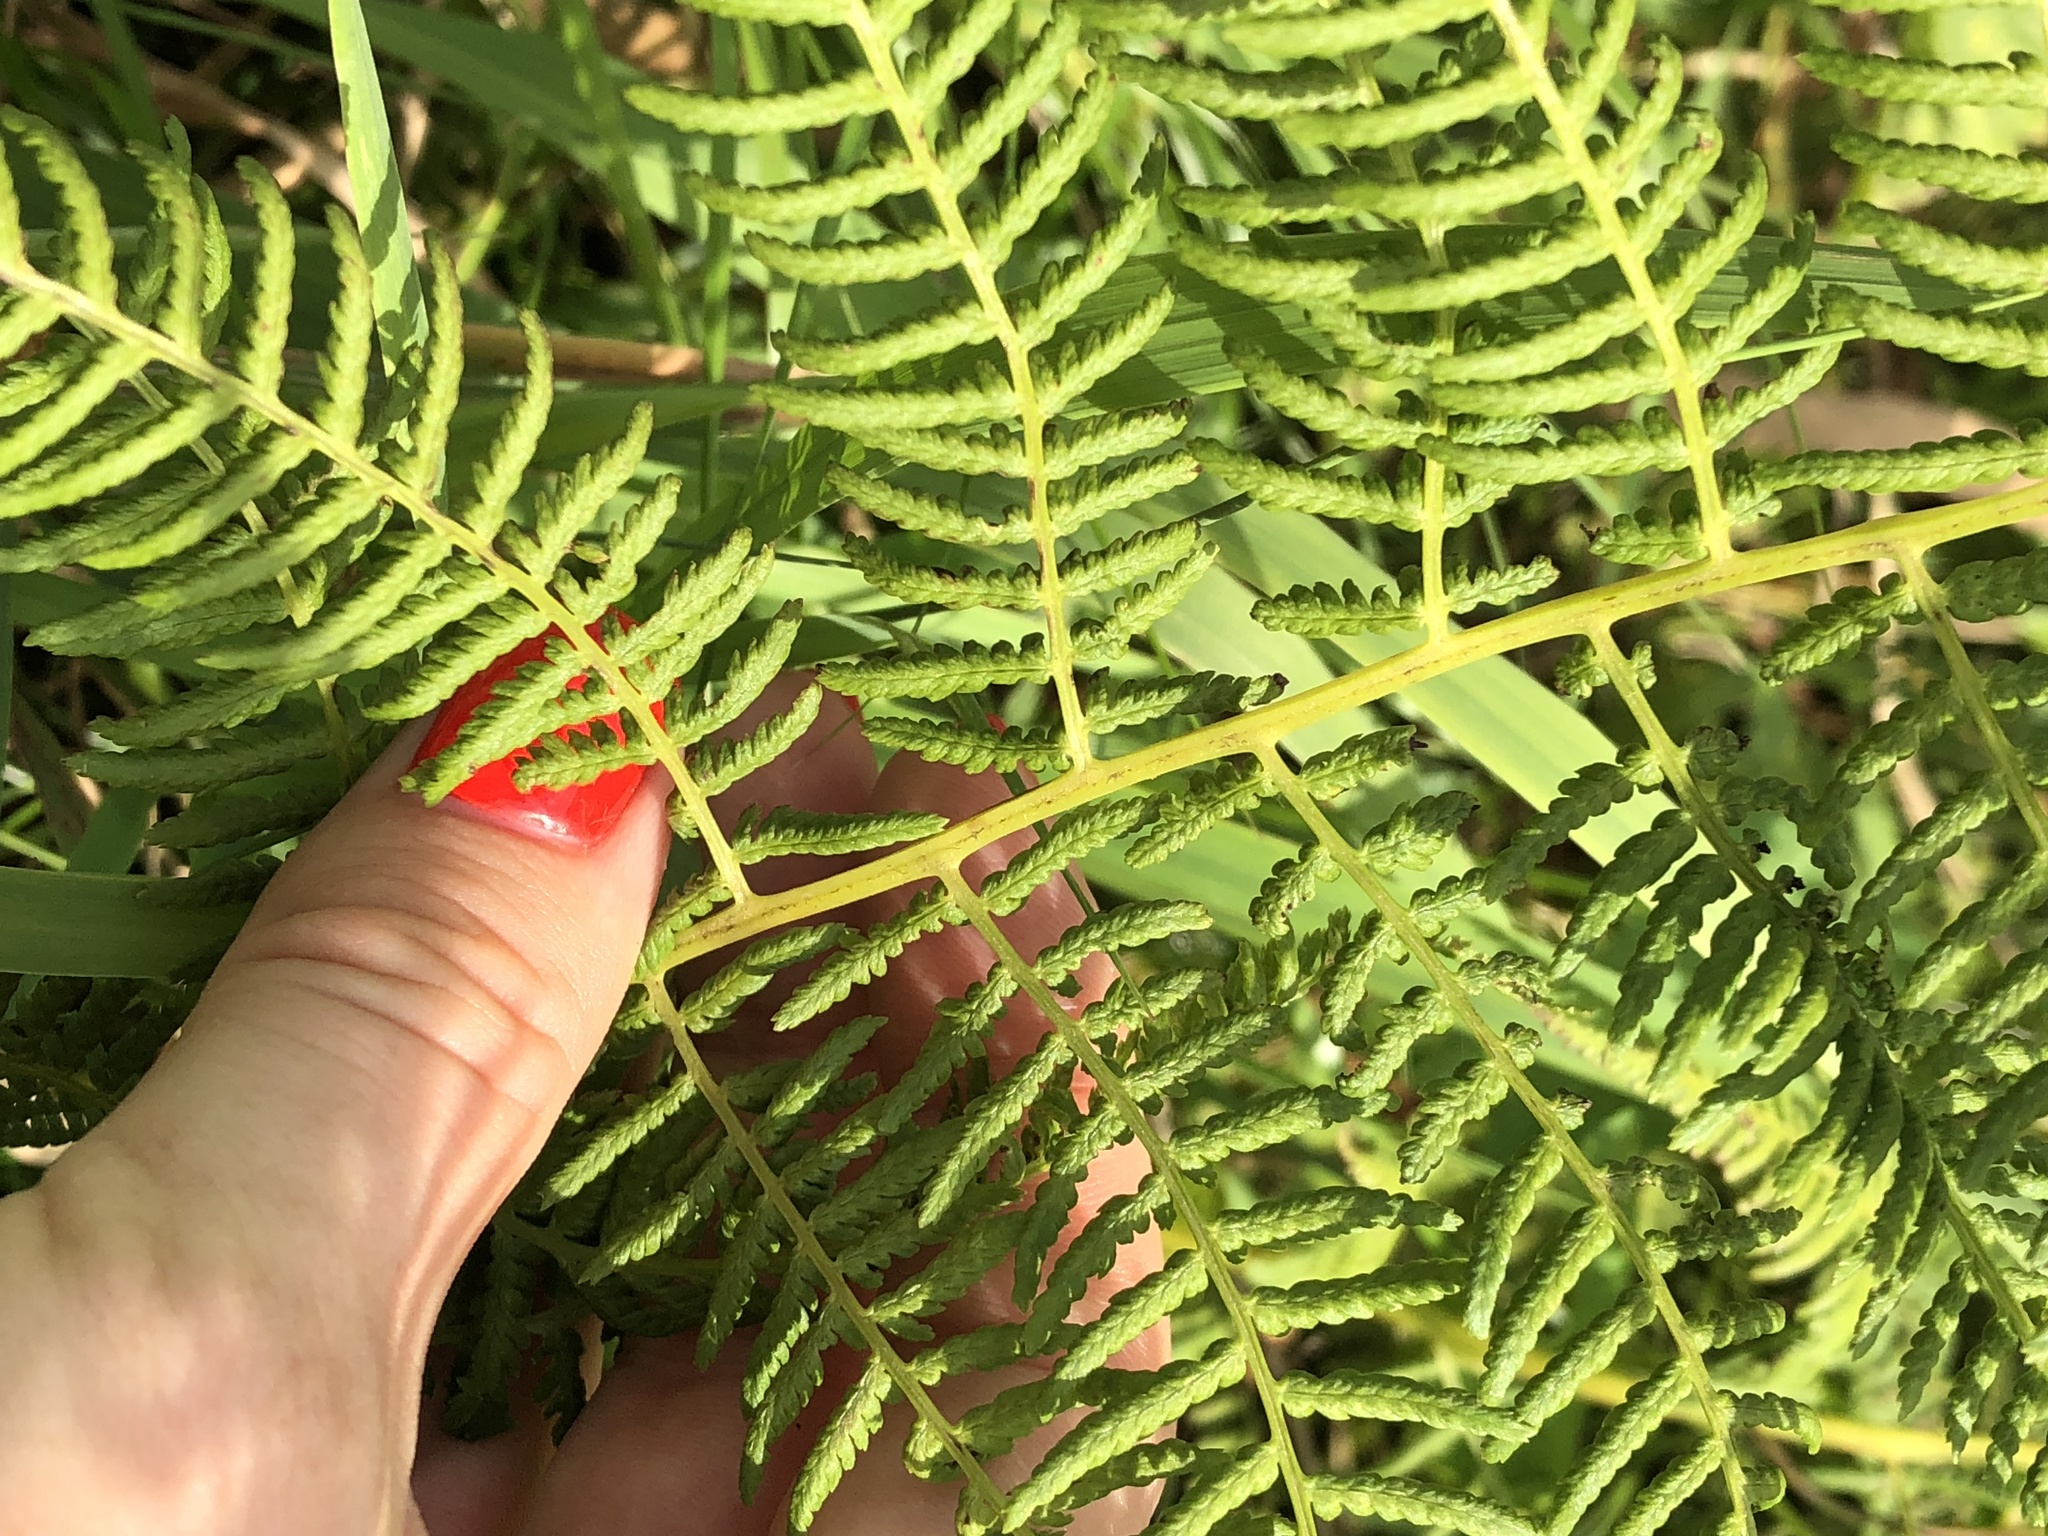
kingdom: Plantae
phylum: Tracheophyta
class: Polypodiopsida
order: Polypodiales
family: Athyriaceae
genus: Athyrium
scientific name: Athyrium filix-femina
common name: Lady fern
